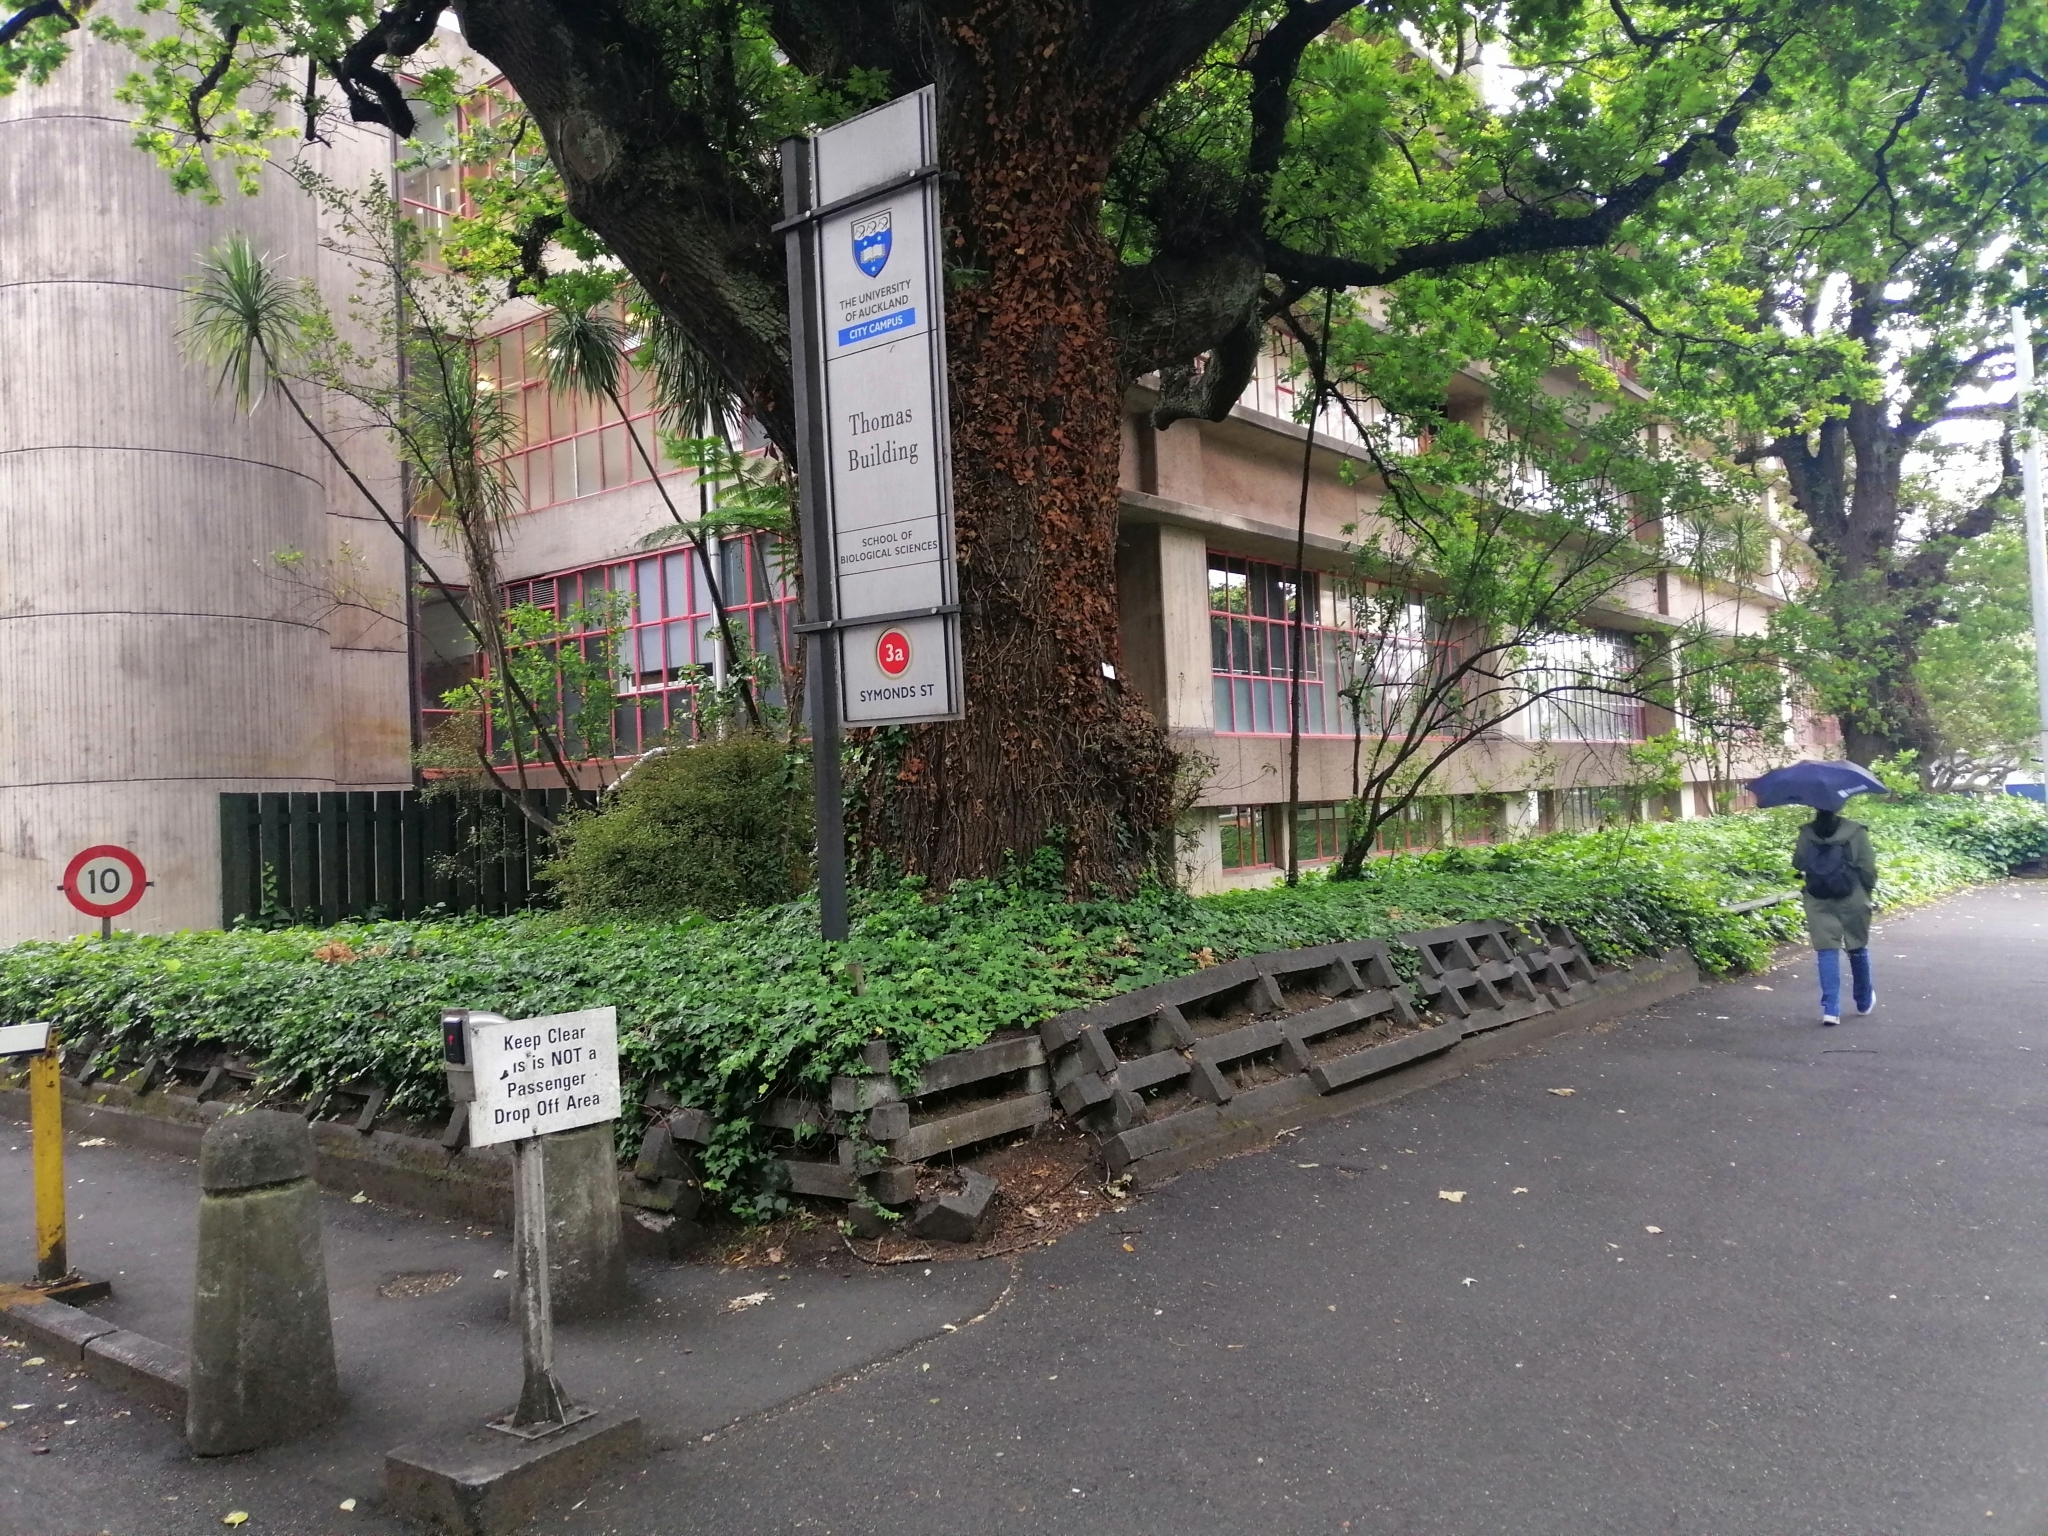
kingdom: Plantae
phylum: Tracheophyta
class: Magnoliopsida
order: Apiales
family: Araliaceae
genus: Hedera
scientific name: Hedera canariensis
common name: Madeira ivy
